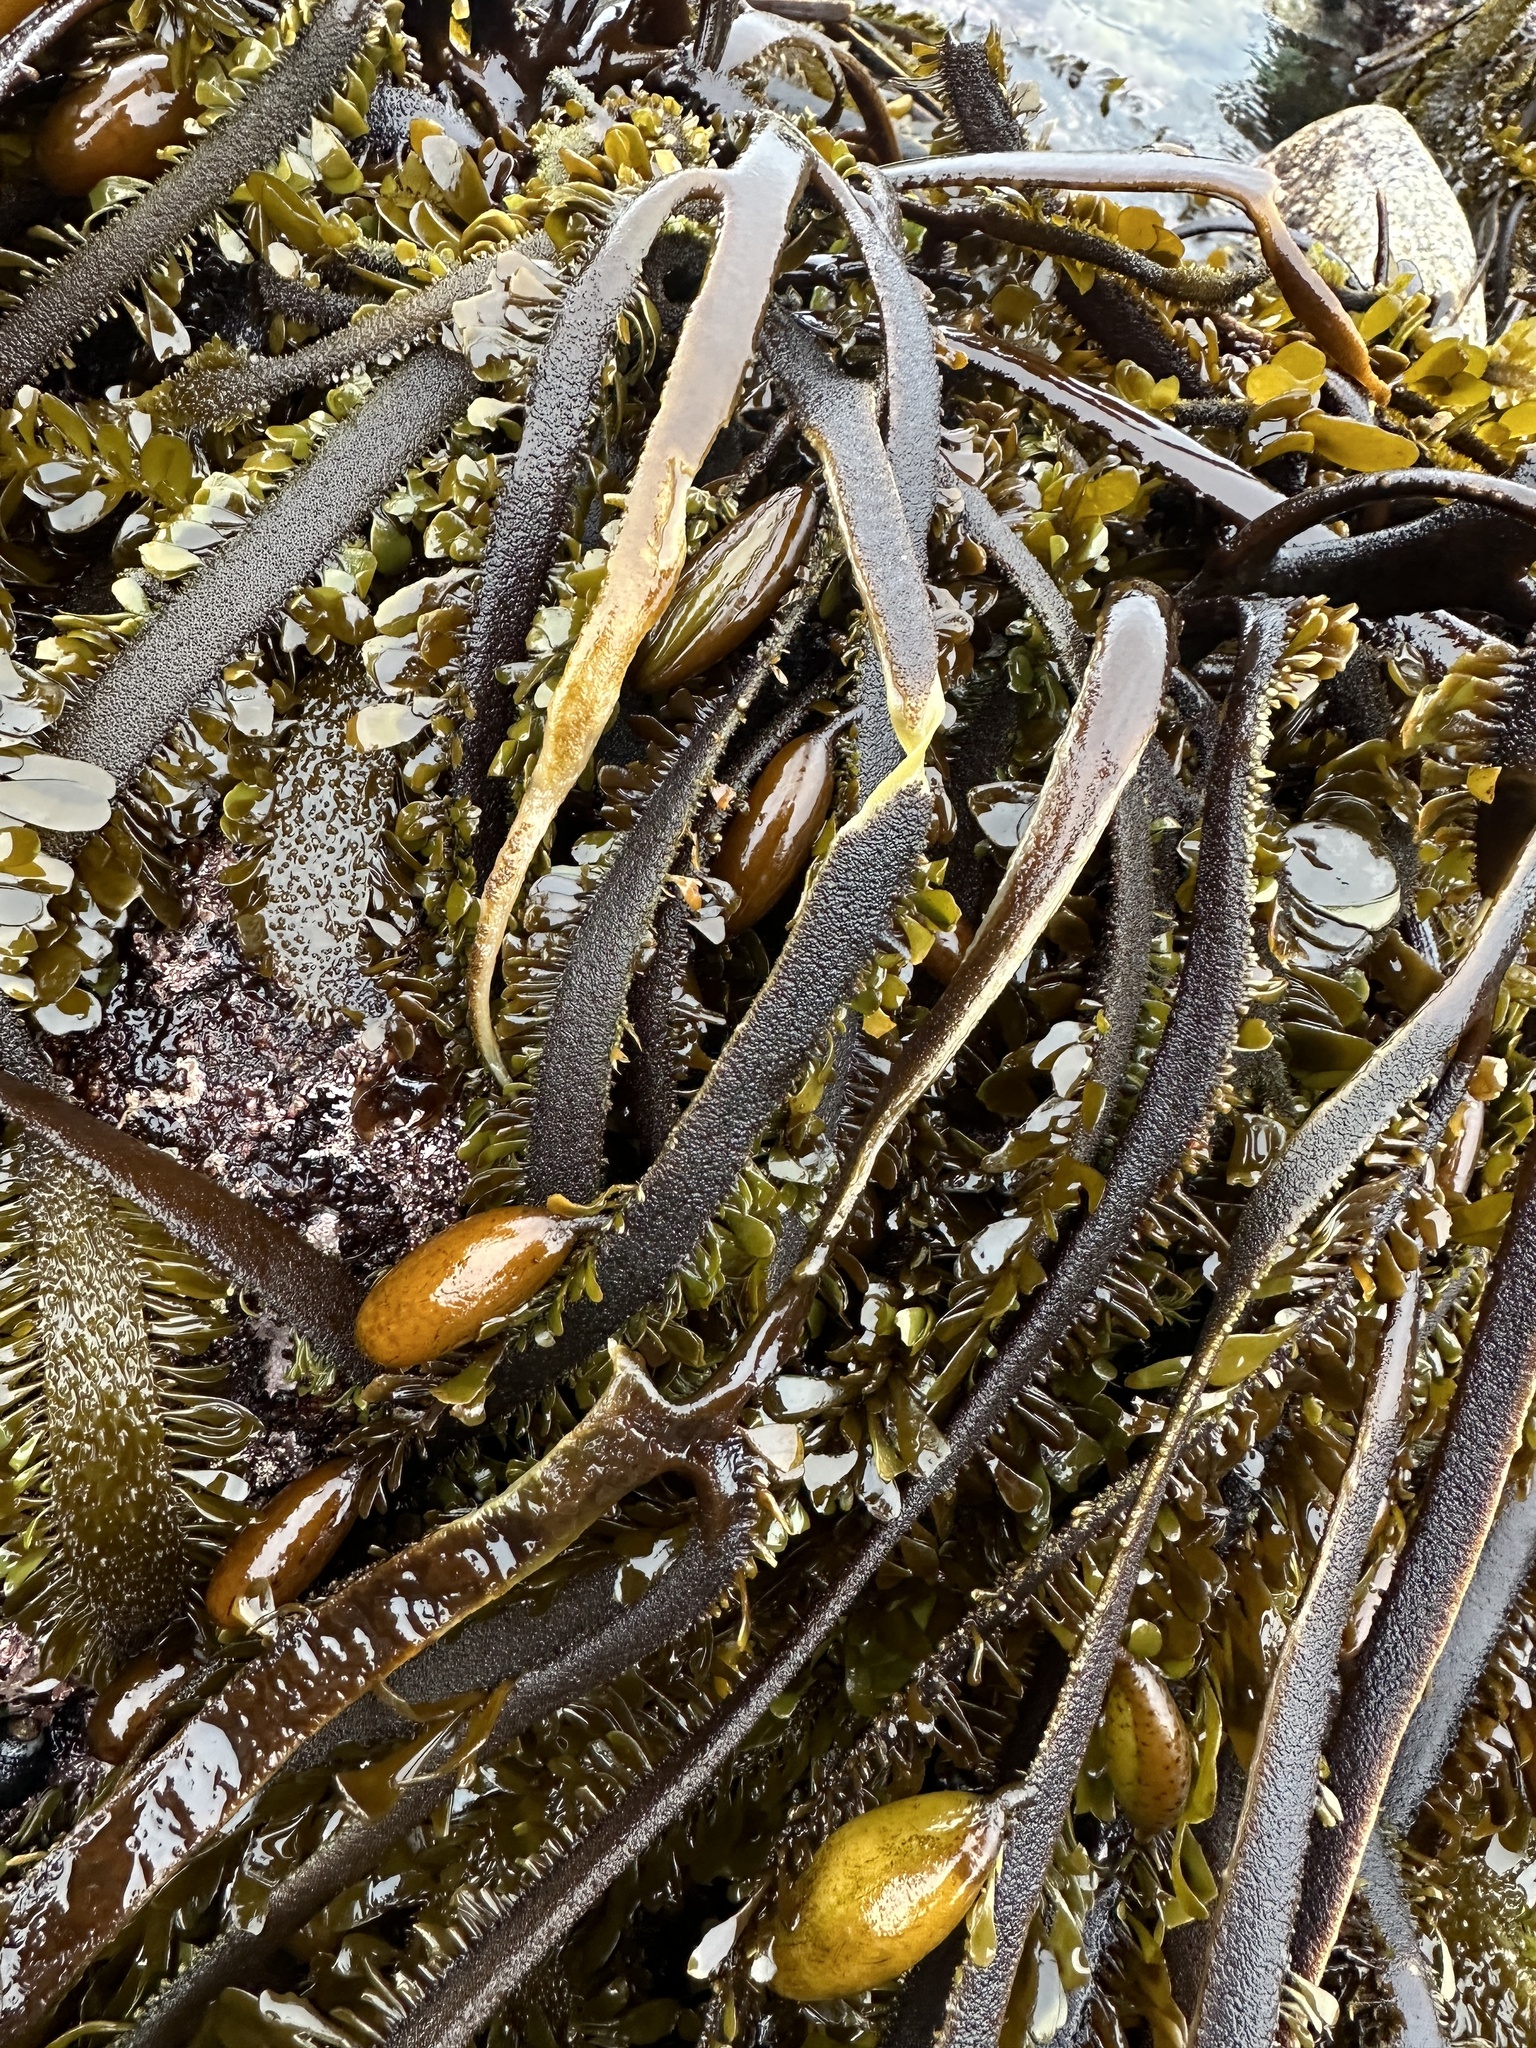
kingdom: Chromista
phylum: Ochrophyta
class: Phaeophyceae
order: Laminariales
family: Lessoniaceae
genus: Egregia
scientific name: Egregia menziesii
